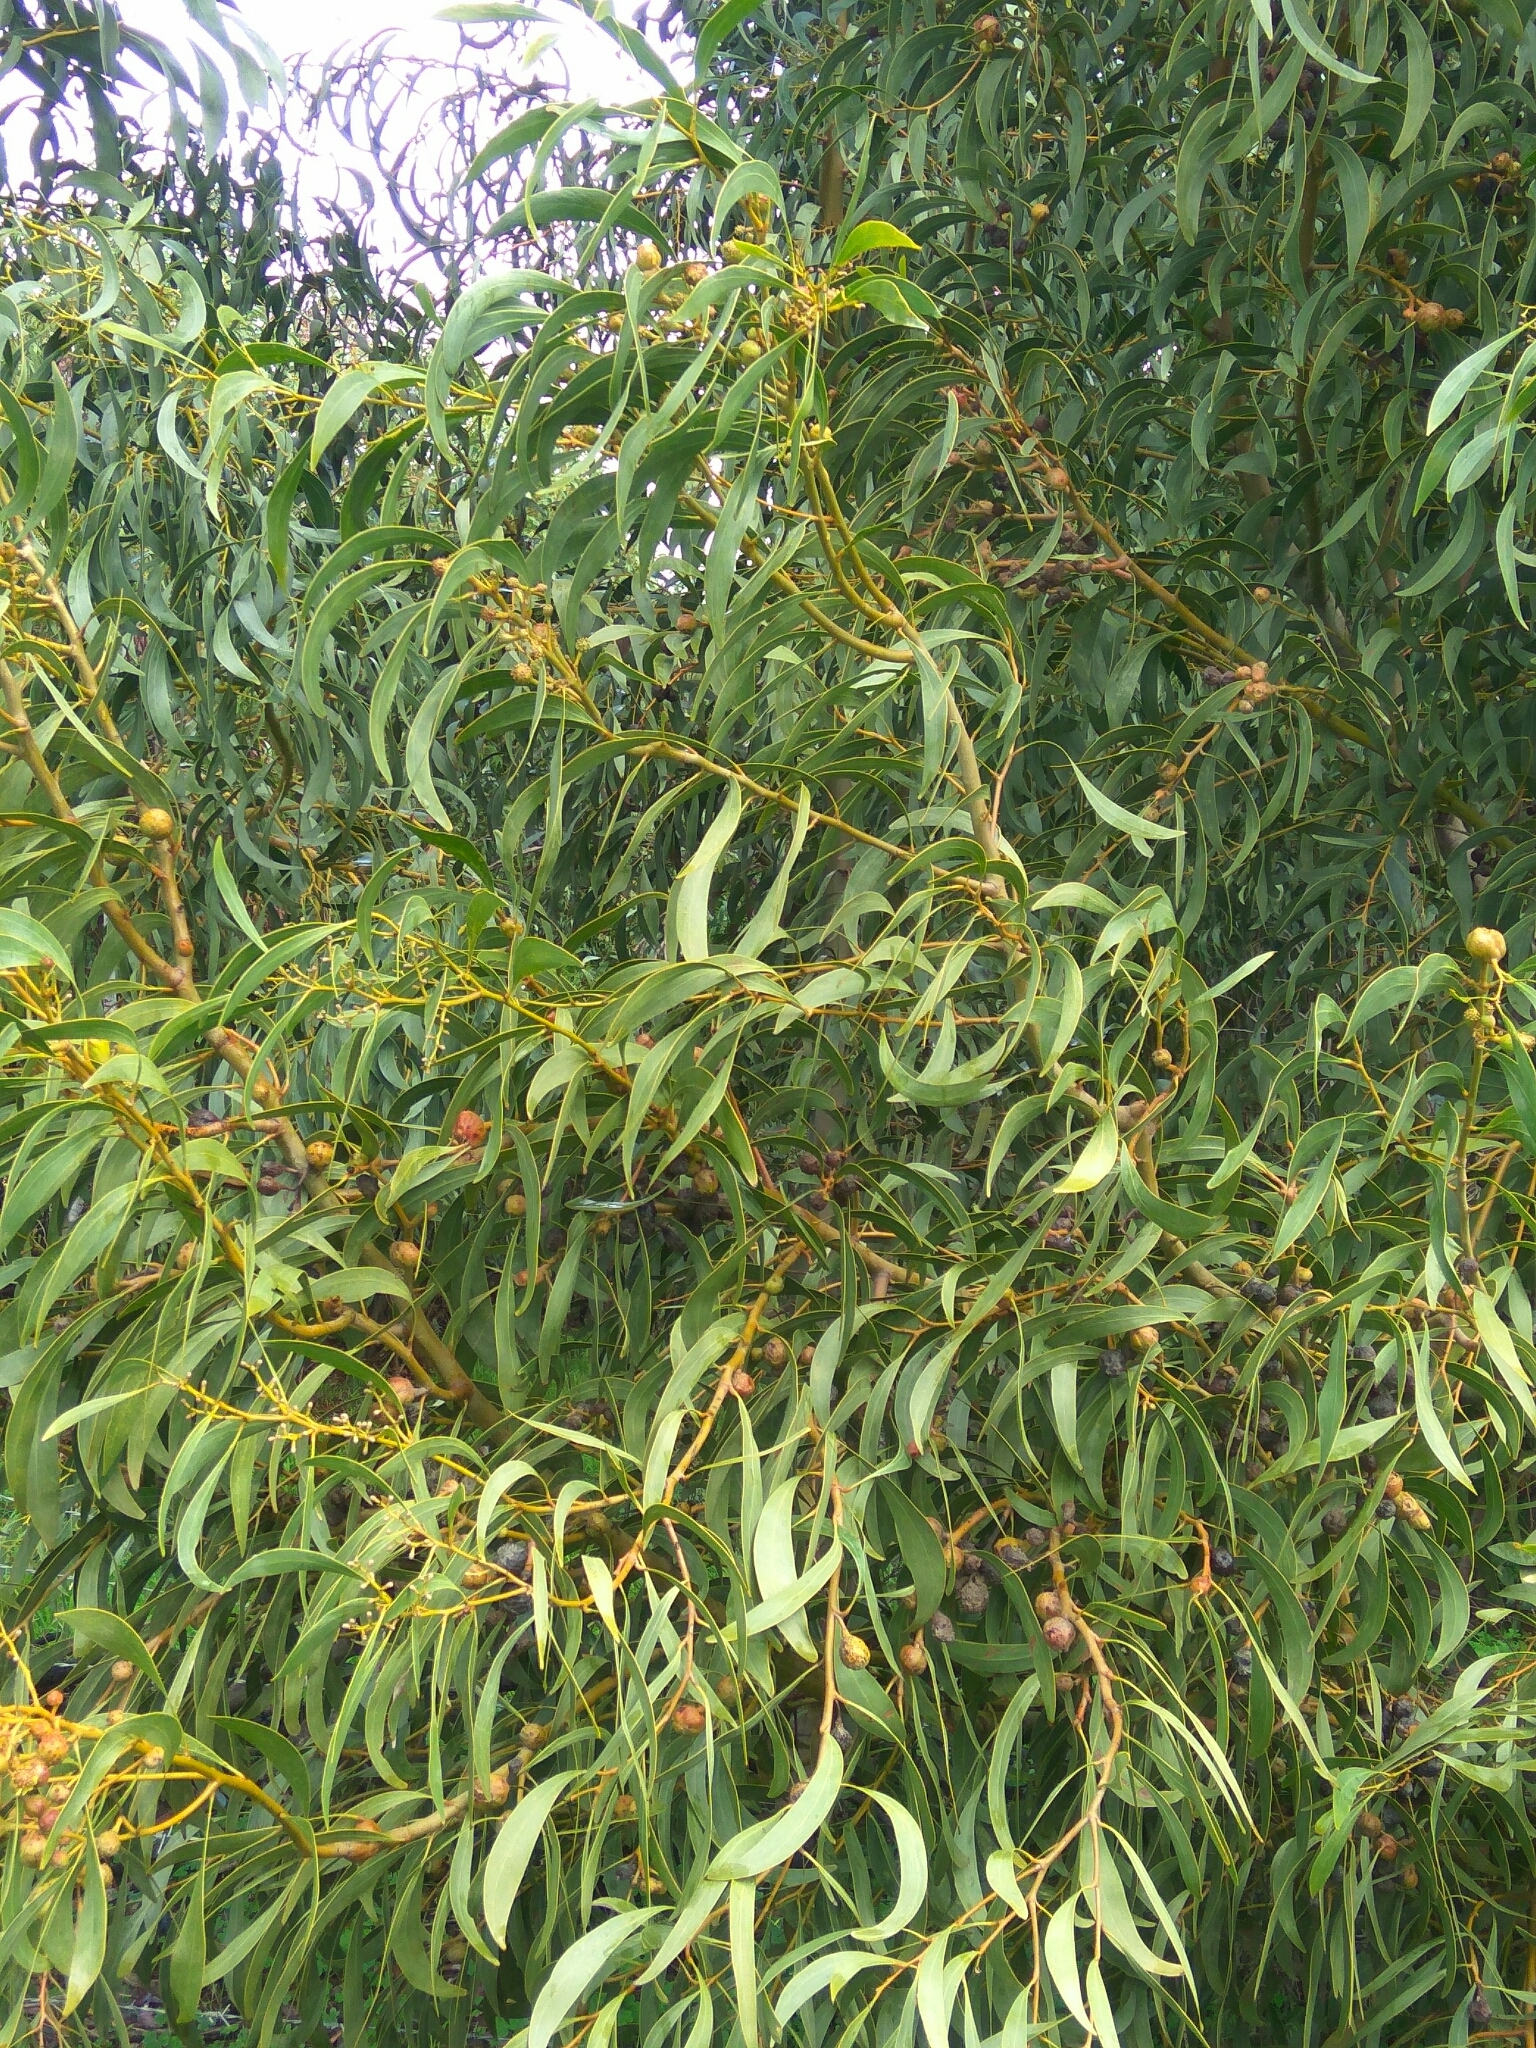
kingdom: Animalia
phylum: Arthropoda
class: Insecta
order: Hymenoptera
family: Pteromalidae
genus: Trichilogaster
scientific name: Trichilogaster signiventris
